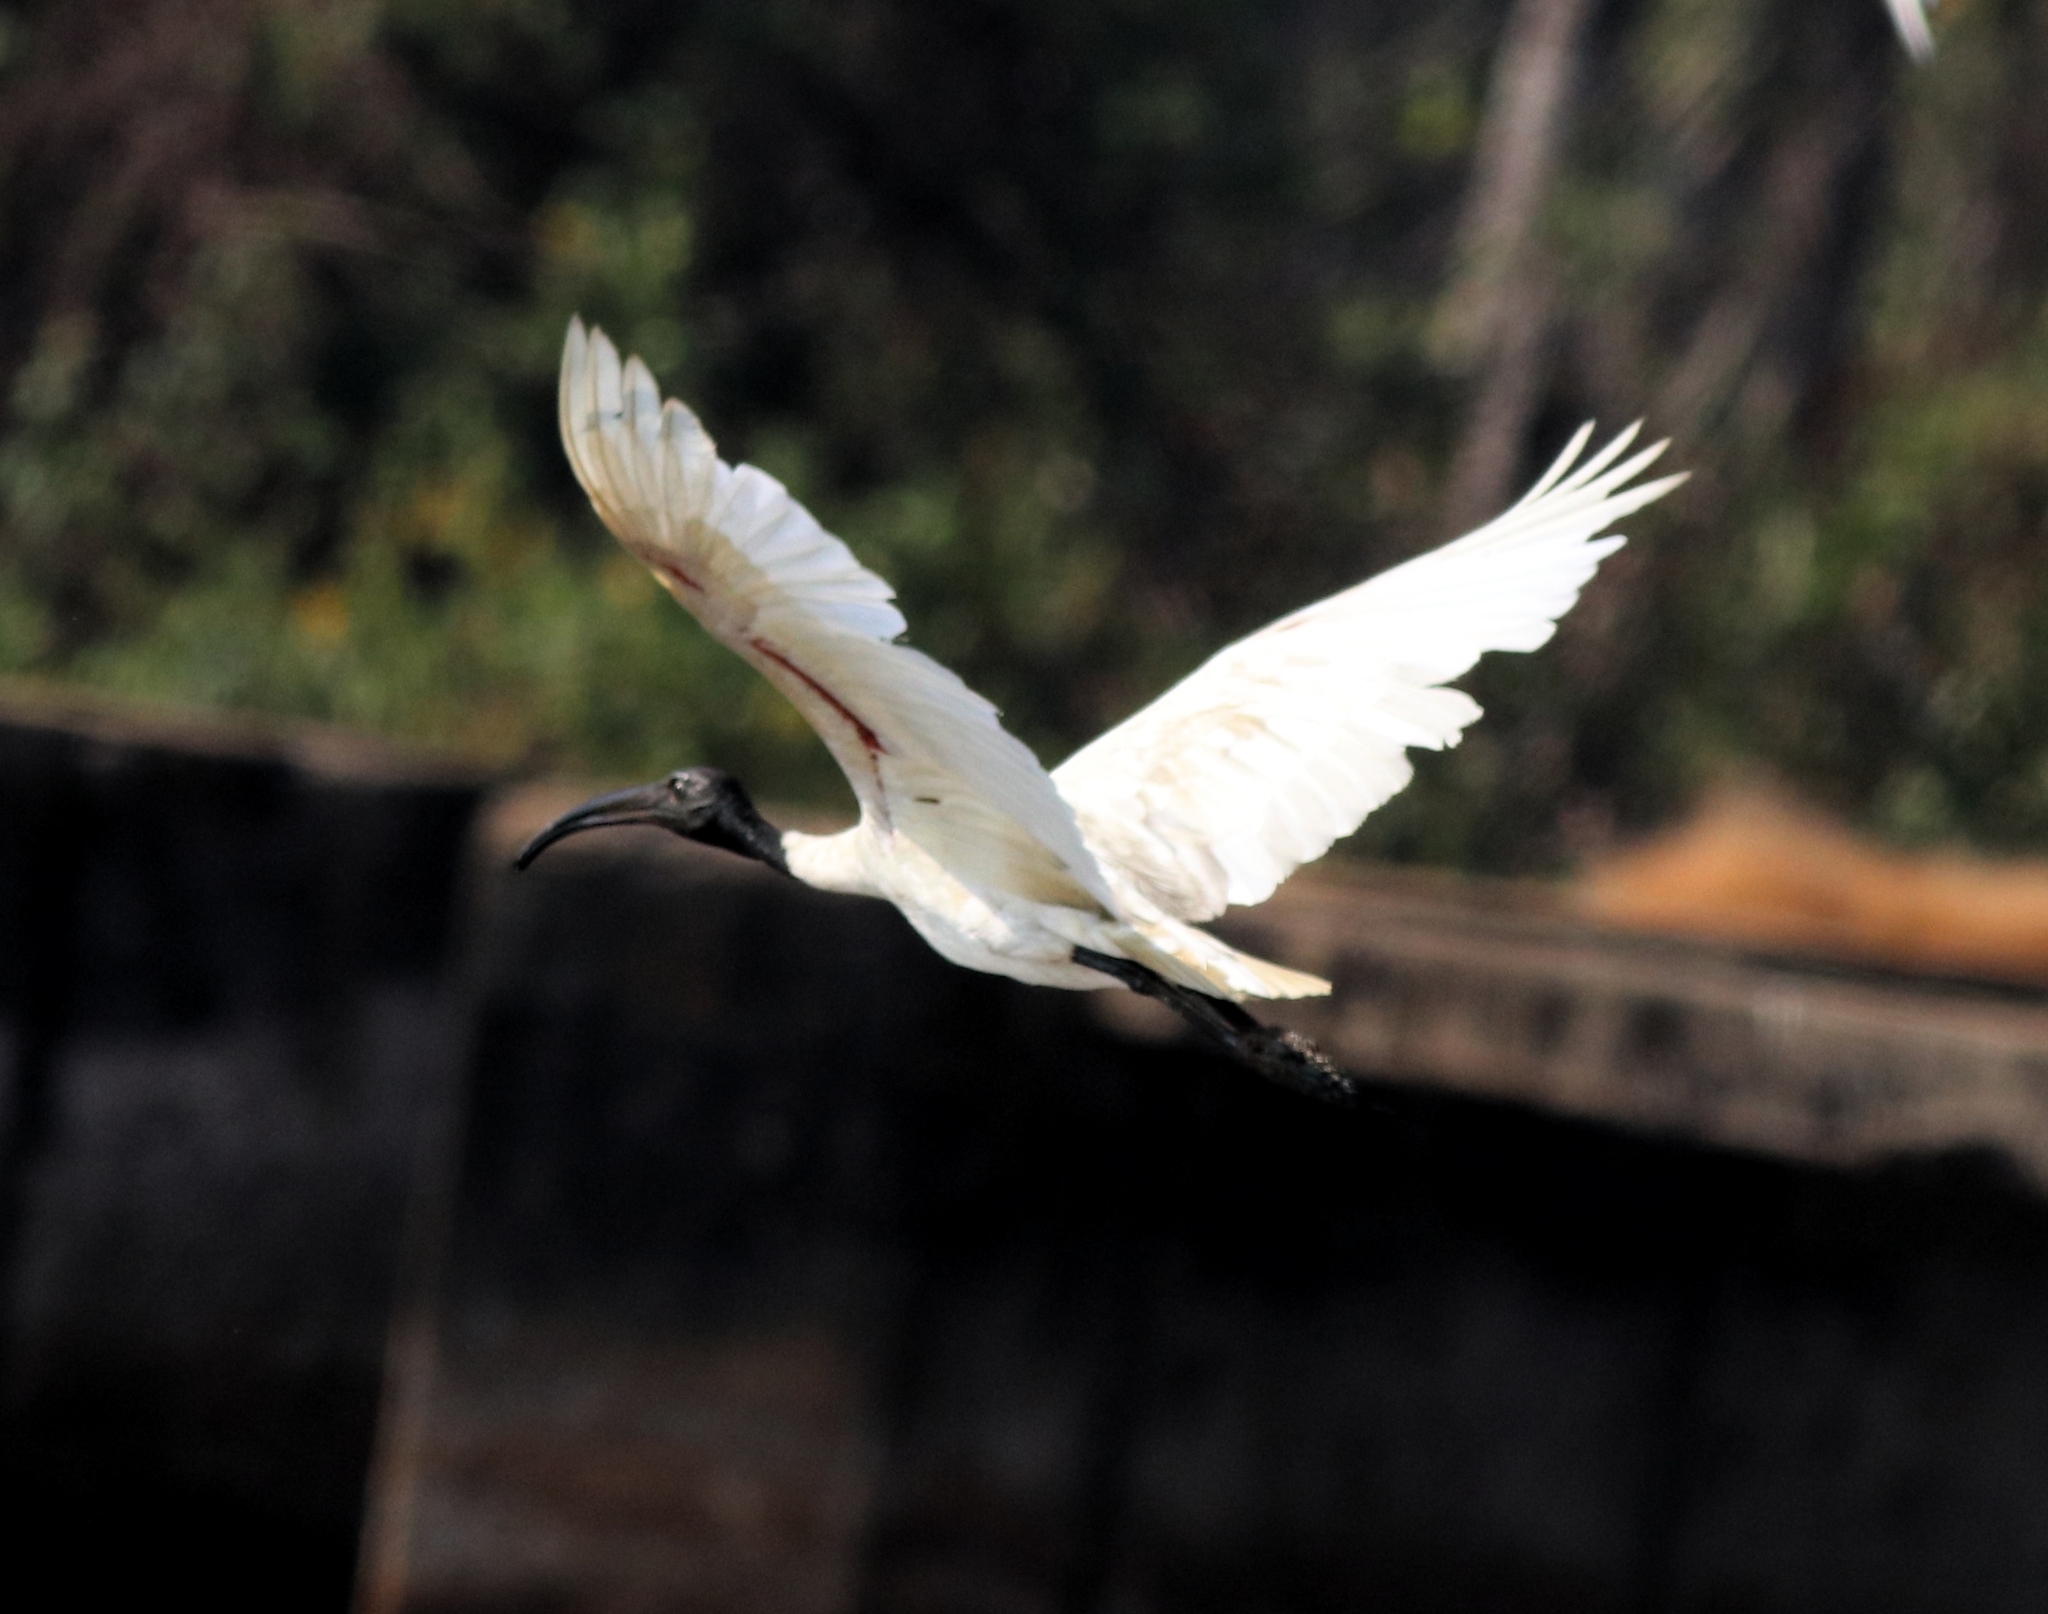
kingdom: Animalia
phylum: Chordata
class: Aves
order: Pelecaniformes
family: Threskiornithidae
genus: Threskiornis
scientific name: Threskiornis melanocephalus
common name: Black-headed ibis
